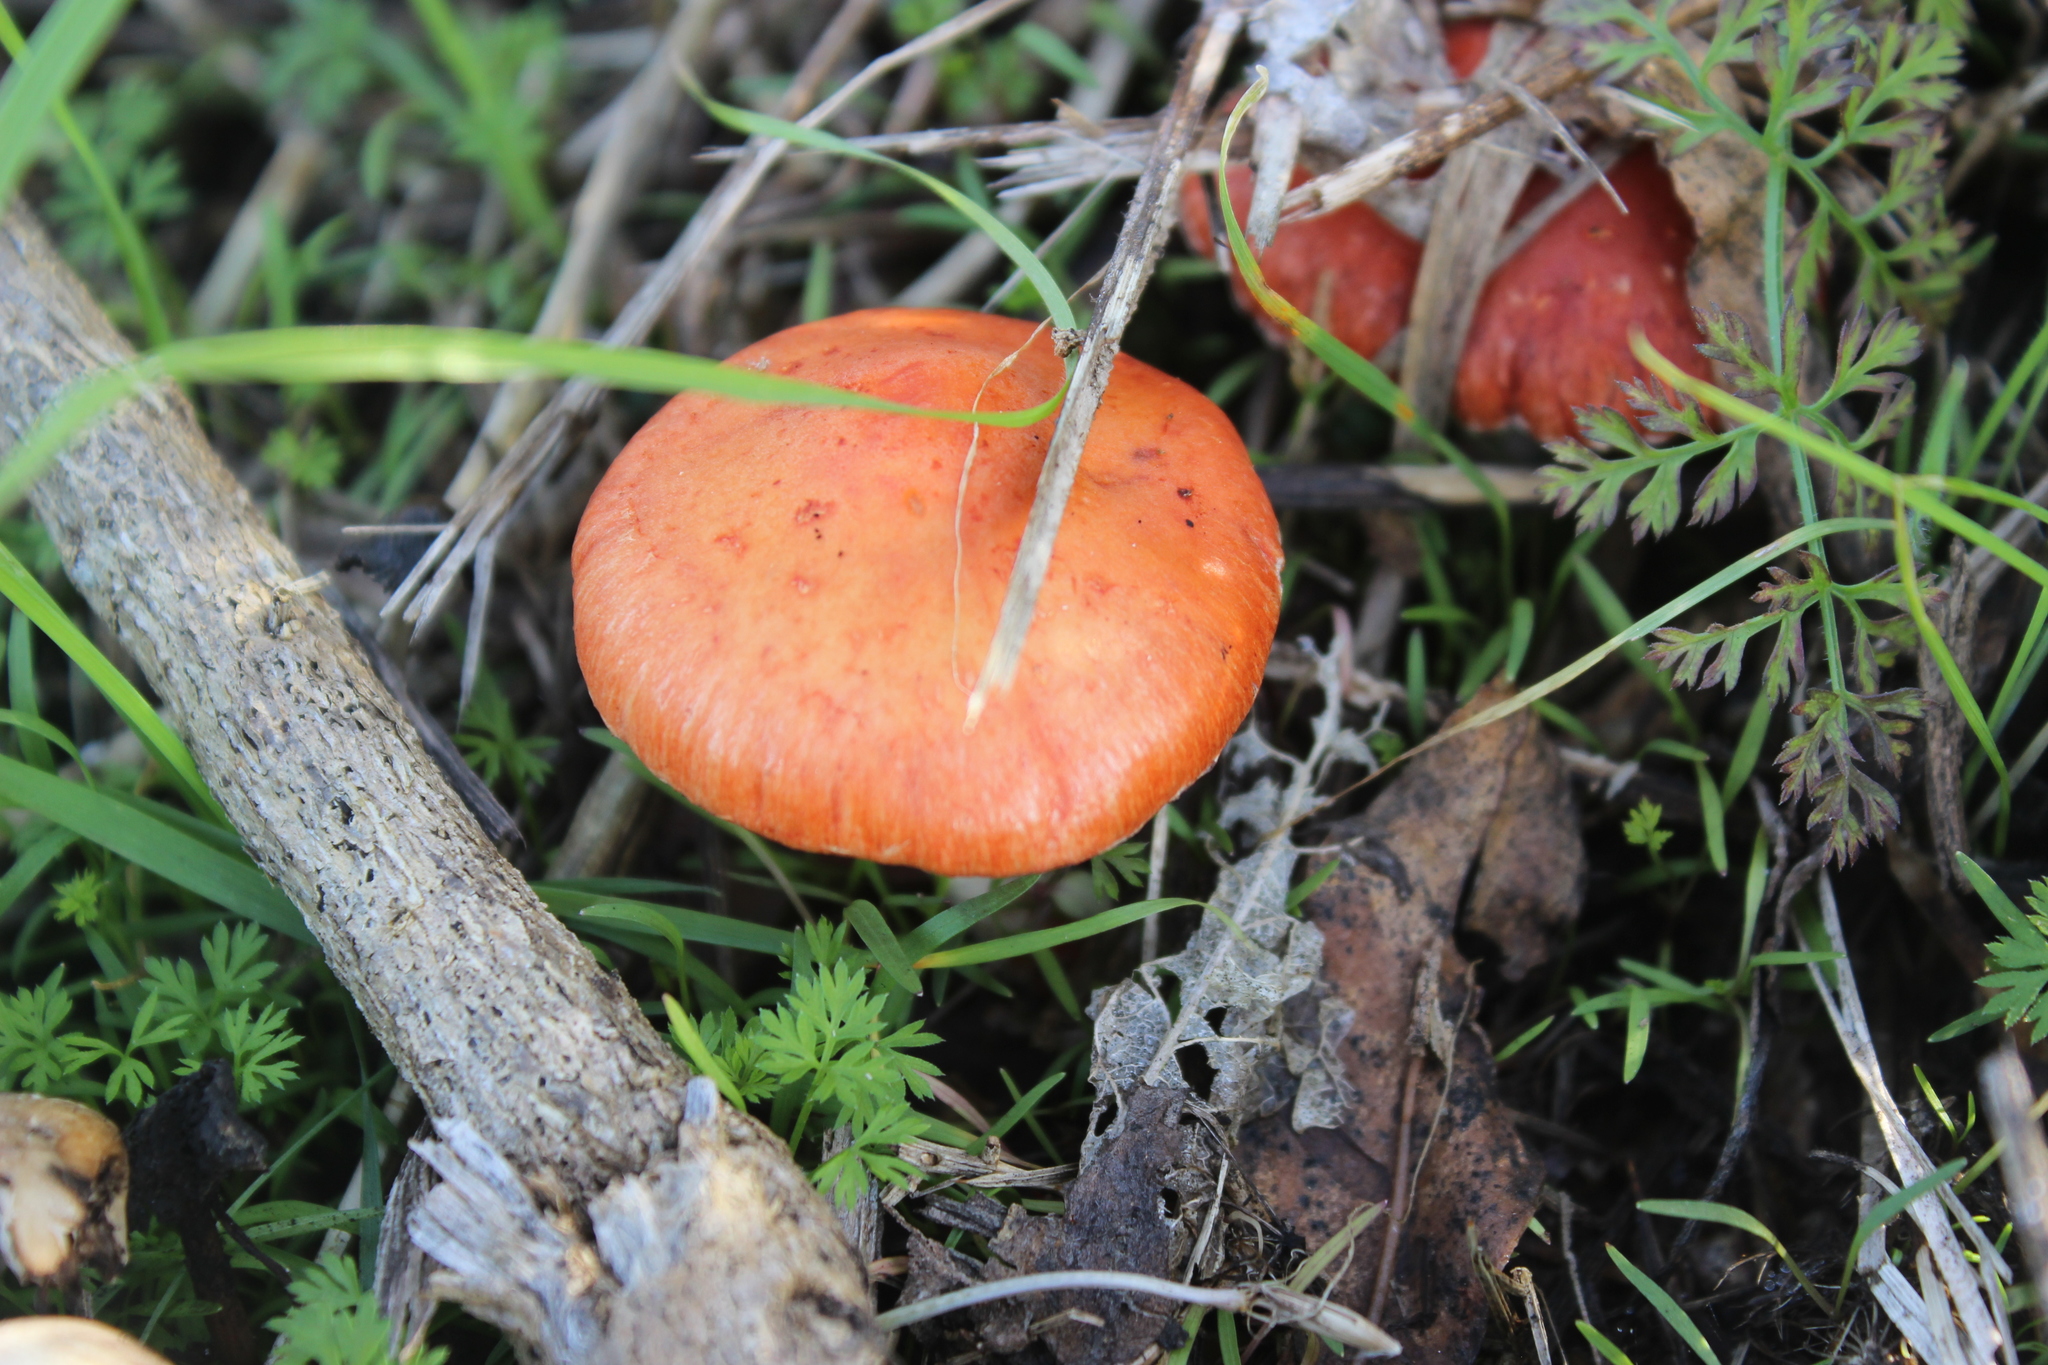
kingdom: Fungi
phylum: Basidiomycota
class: Agaricomycetes
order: Agaricales
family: Strophariaceae
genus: Leratiomyces
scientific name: Leratiomyces ceres
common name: Redlead roundhead
